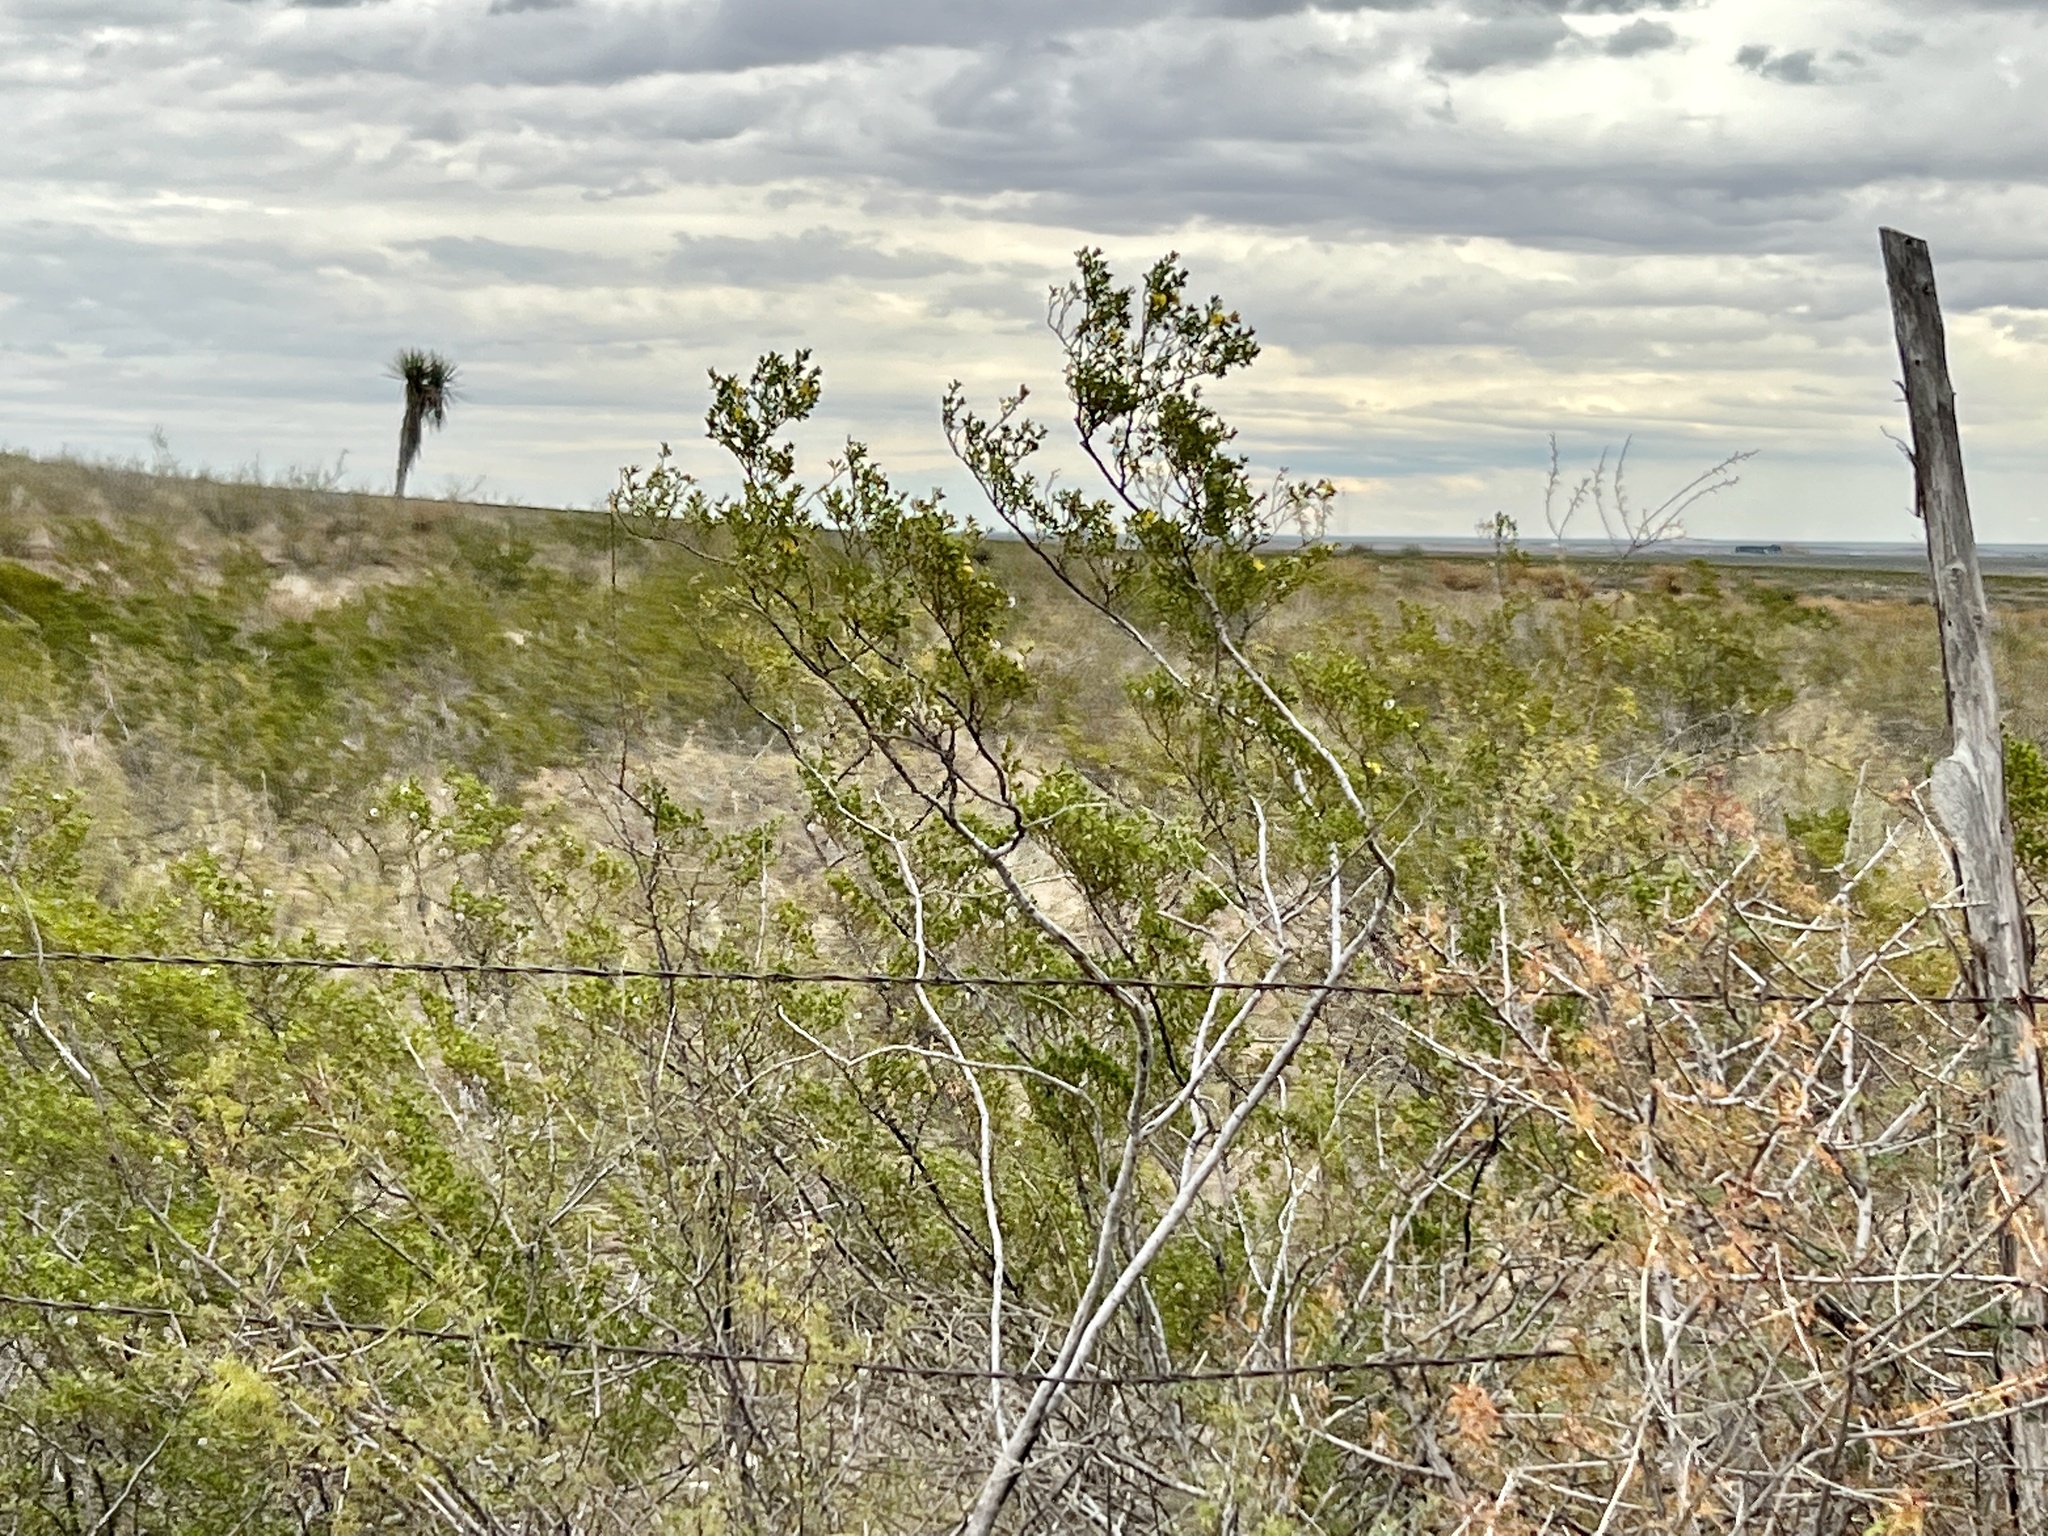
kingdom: Plantae
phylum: Tracheophyta
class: Magnoliopsida
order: Zygophyllales
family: Zygophyllaceae
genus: Larrea
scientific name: Larrea tridentata
